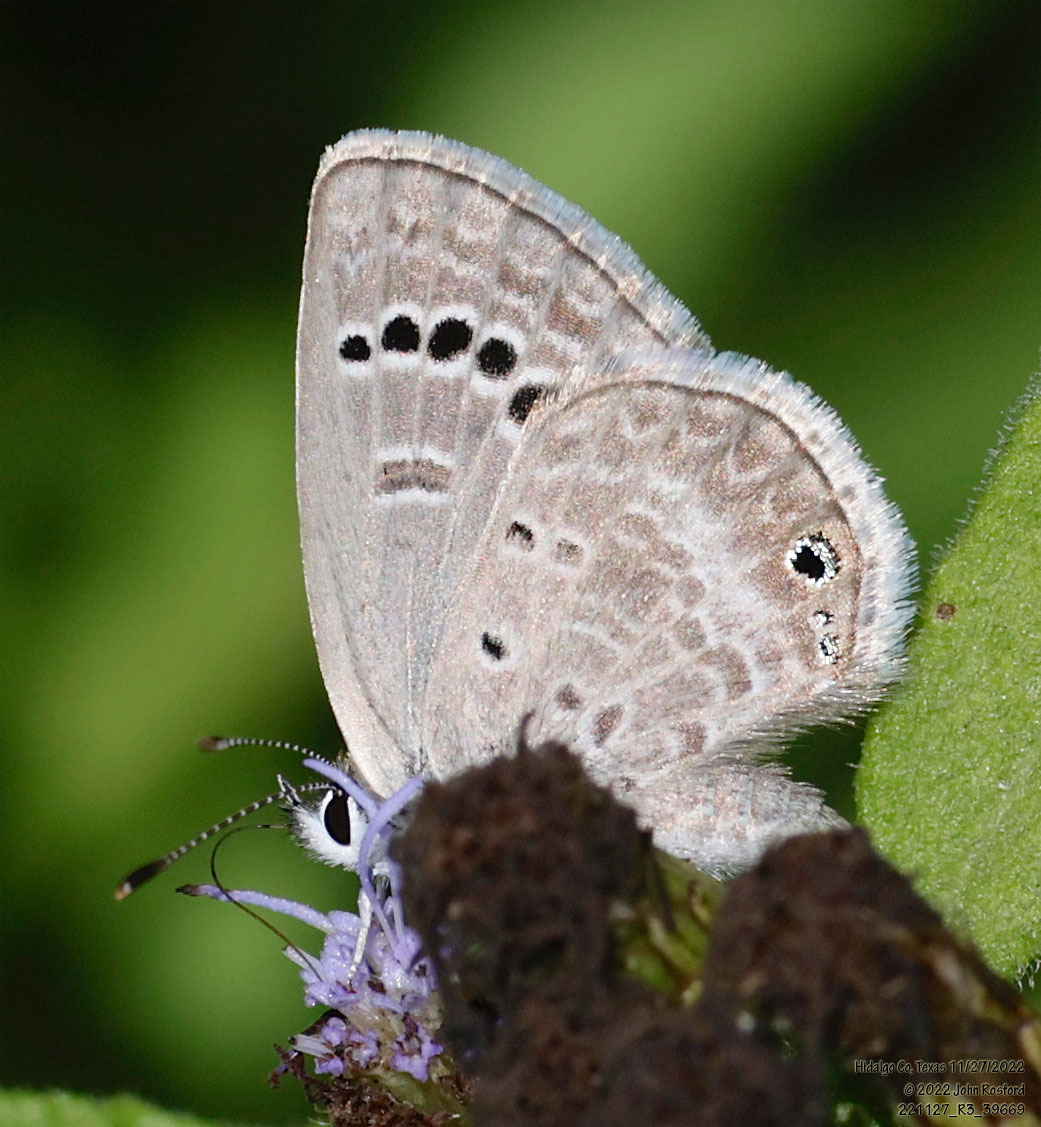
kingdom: Animalia
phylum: Arthropoda
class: Insecta
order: Lepidoptera
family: Lycaenidae
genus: Echinargus
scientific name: Echinargus isola
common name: Reakirt's blue
